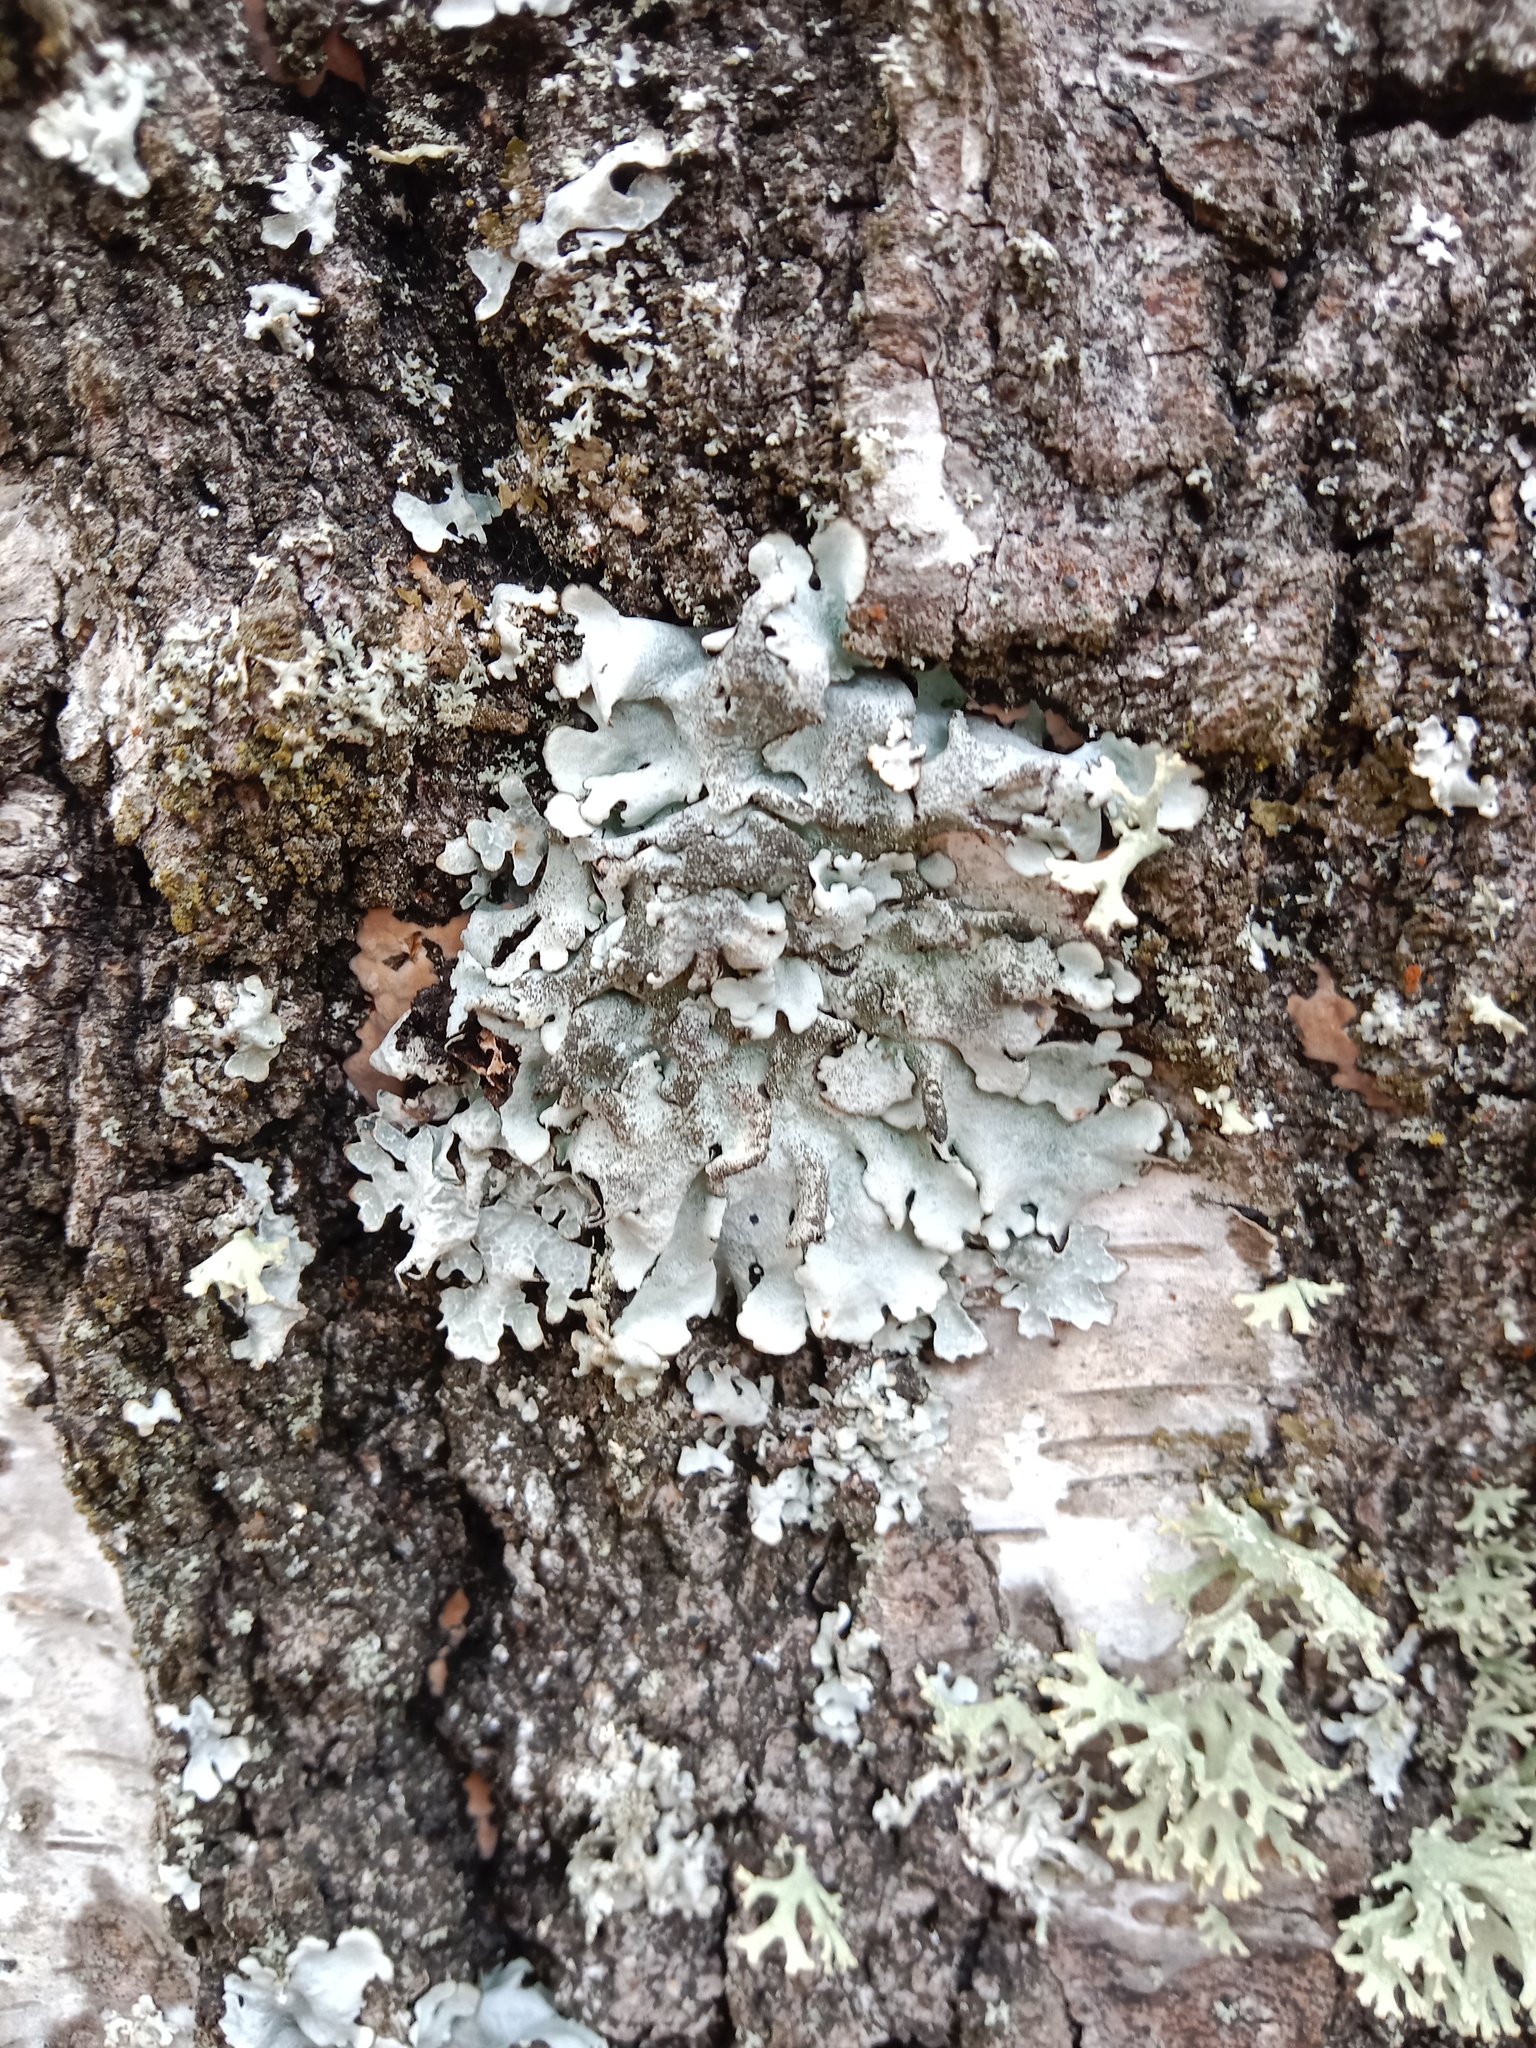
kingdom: Fungi
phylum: Ascomycota
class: Lecanoromycetes
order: Lecanorales
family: Parmeliaceae
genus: Parmelina
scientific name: Parmelina tiliacea
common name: Linden shield lichen
